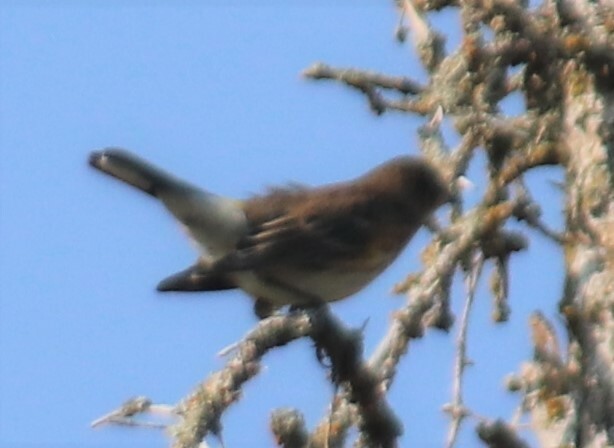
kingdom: Animalia
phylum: Chordata
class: Aves
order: Passeriformes
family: Parulidae
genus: Setophaga
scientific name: Setophaga coronata
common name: Myrtle warbler
